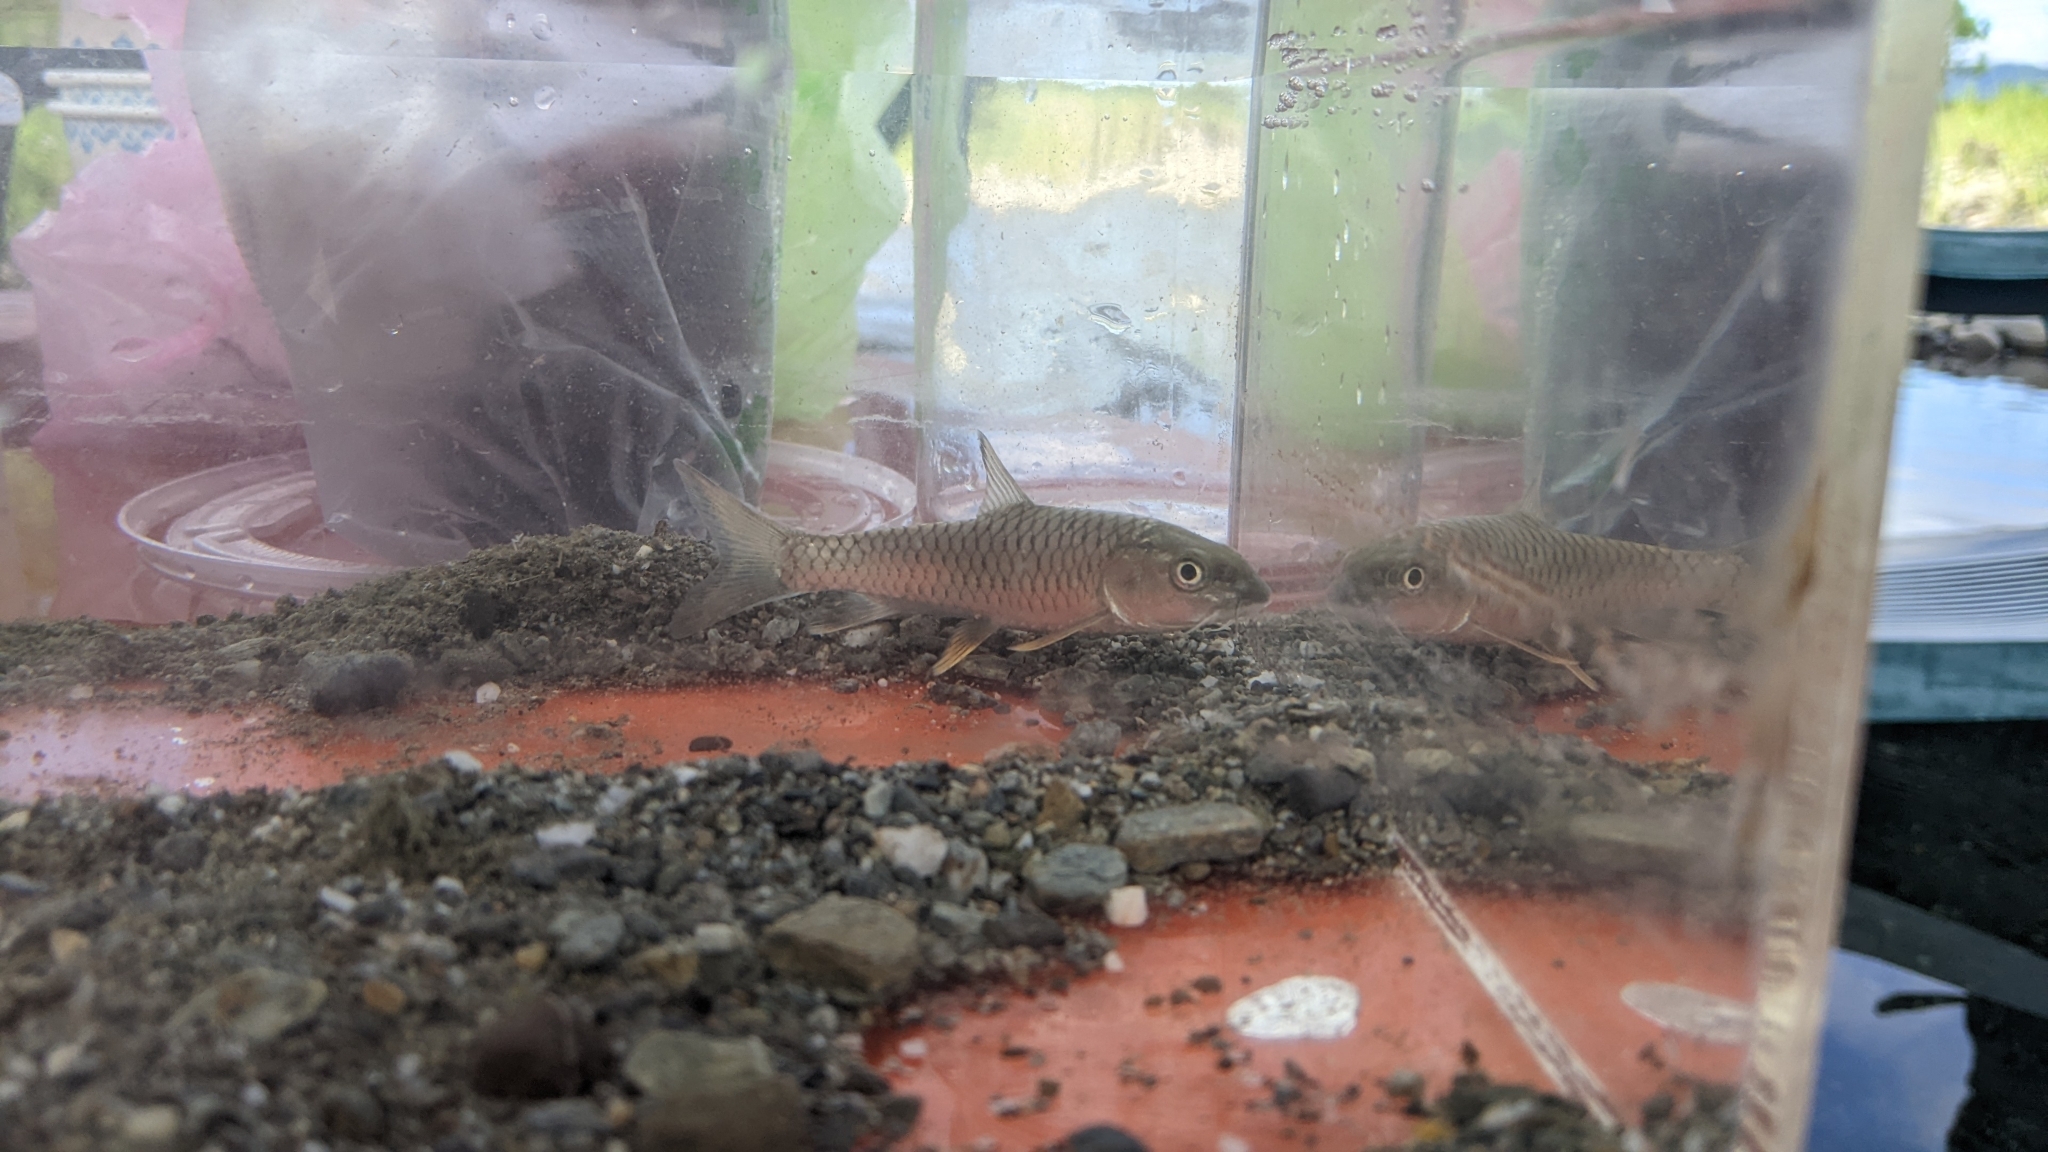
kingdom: Animalia
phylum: Chordata
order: Cypriniformes
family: Cyprinidae
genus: Spinibarbus
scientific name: Spinibarbus hollandi
